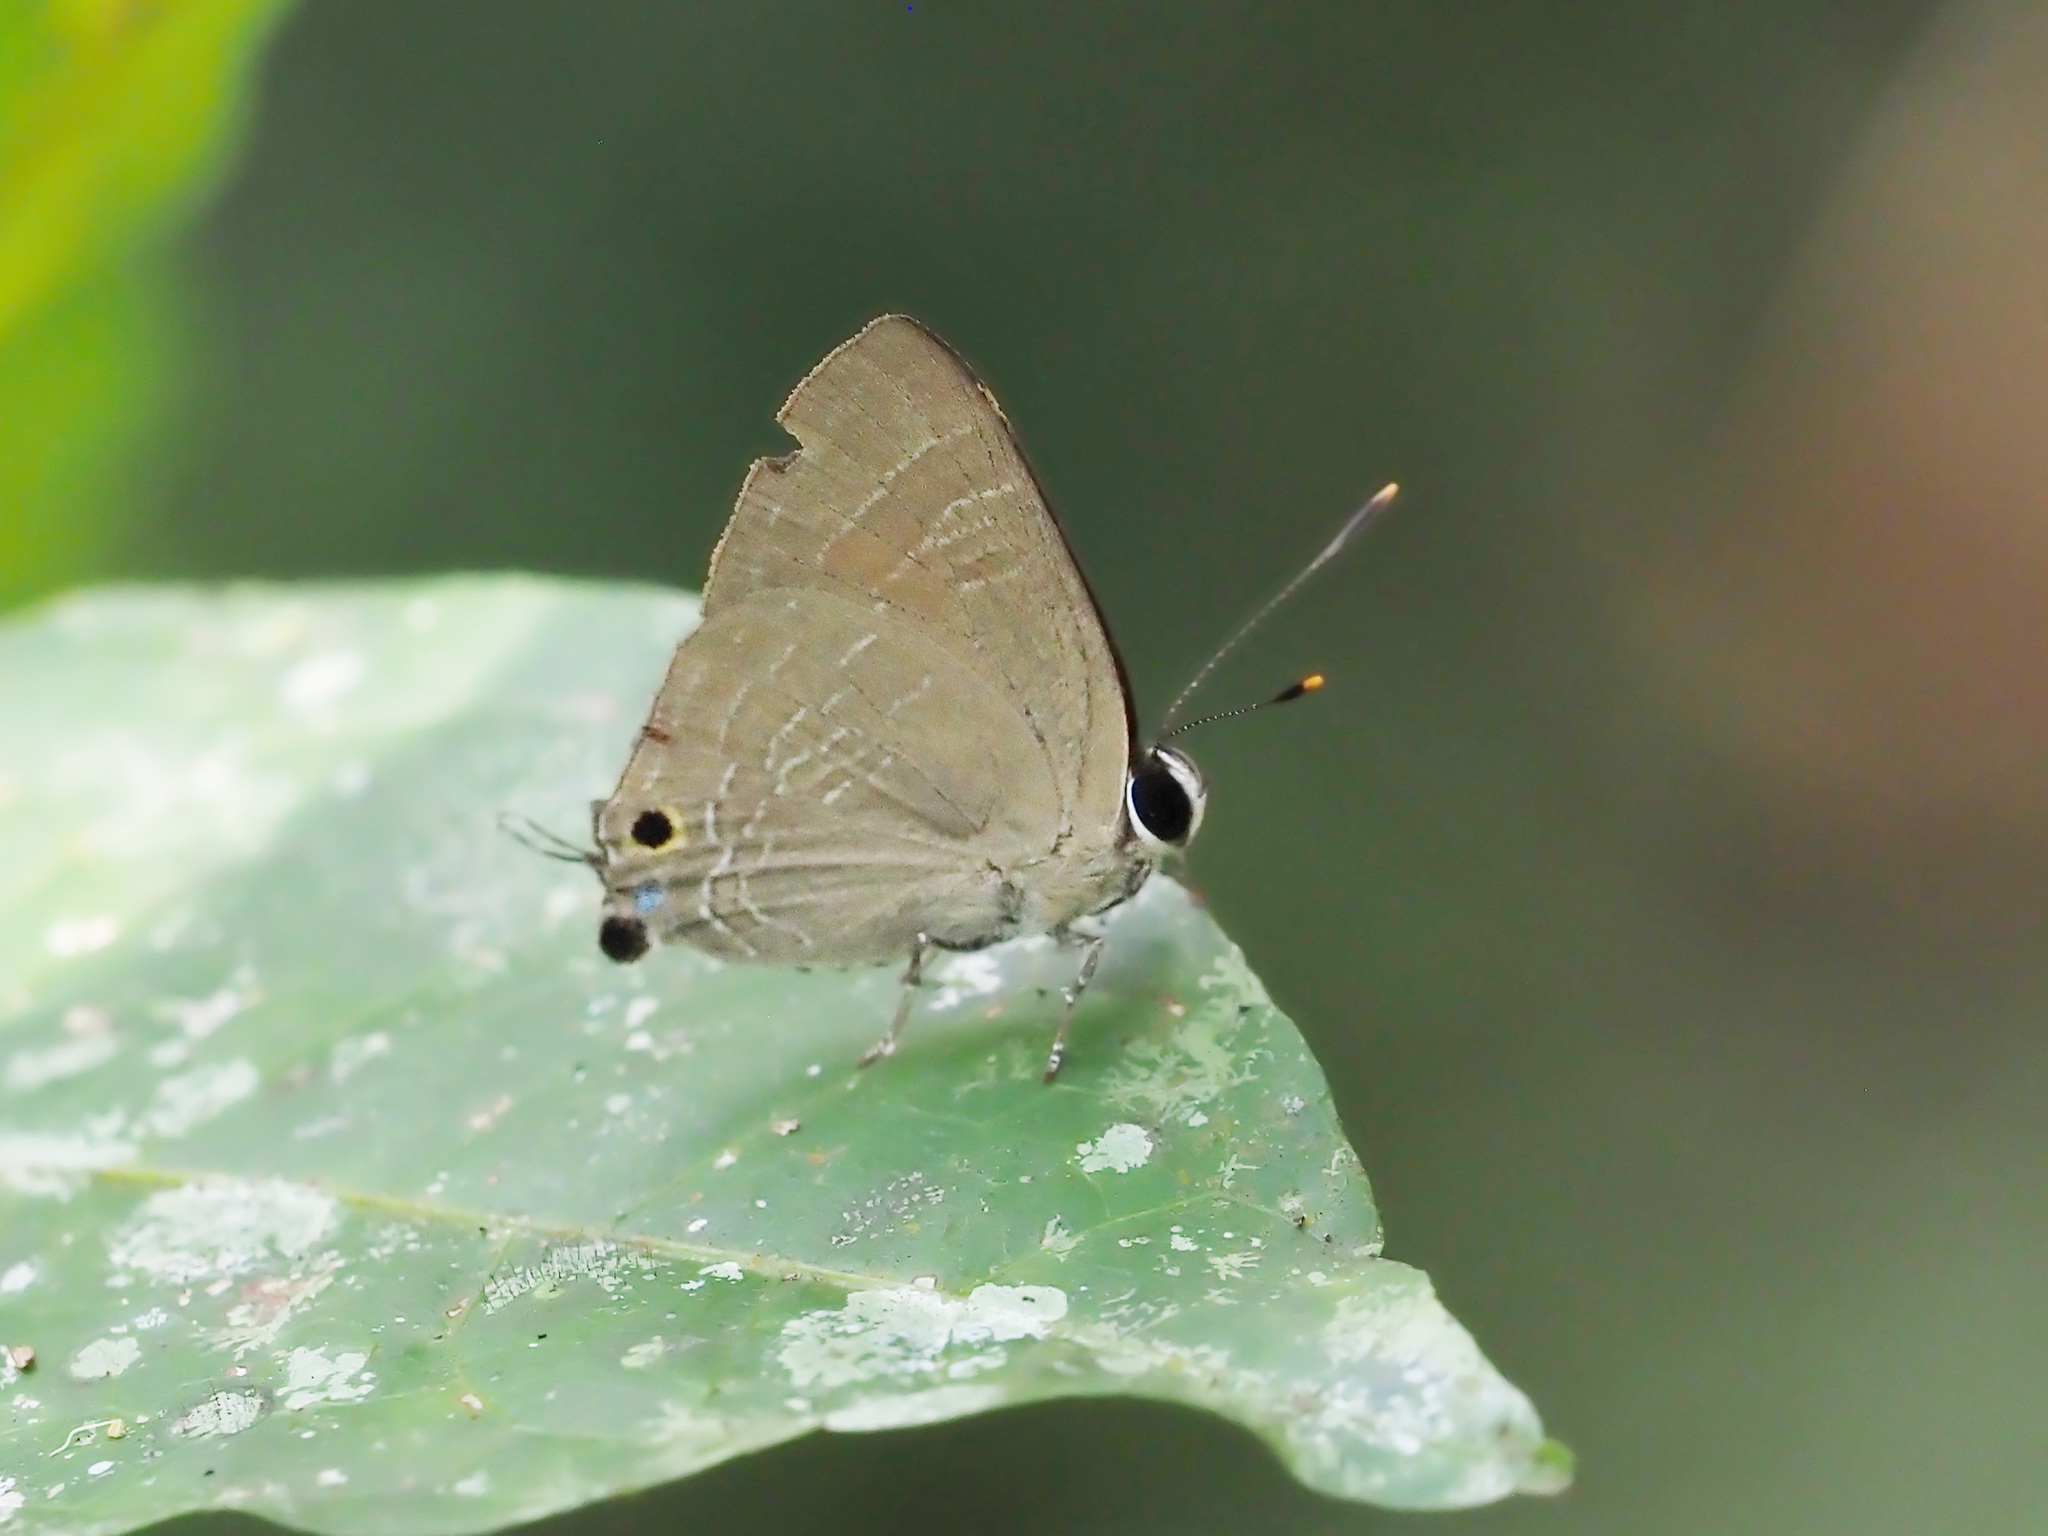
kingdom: Animalia
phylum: Arthropoda
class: Insecta
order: Lepidoptera
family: Lycaenidae
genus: Deudorix
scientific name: Deudorix epijarbas
